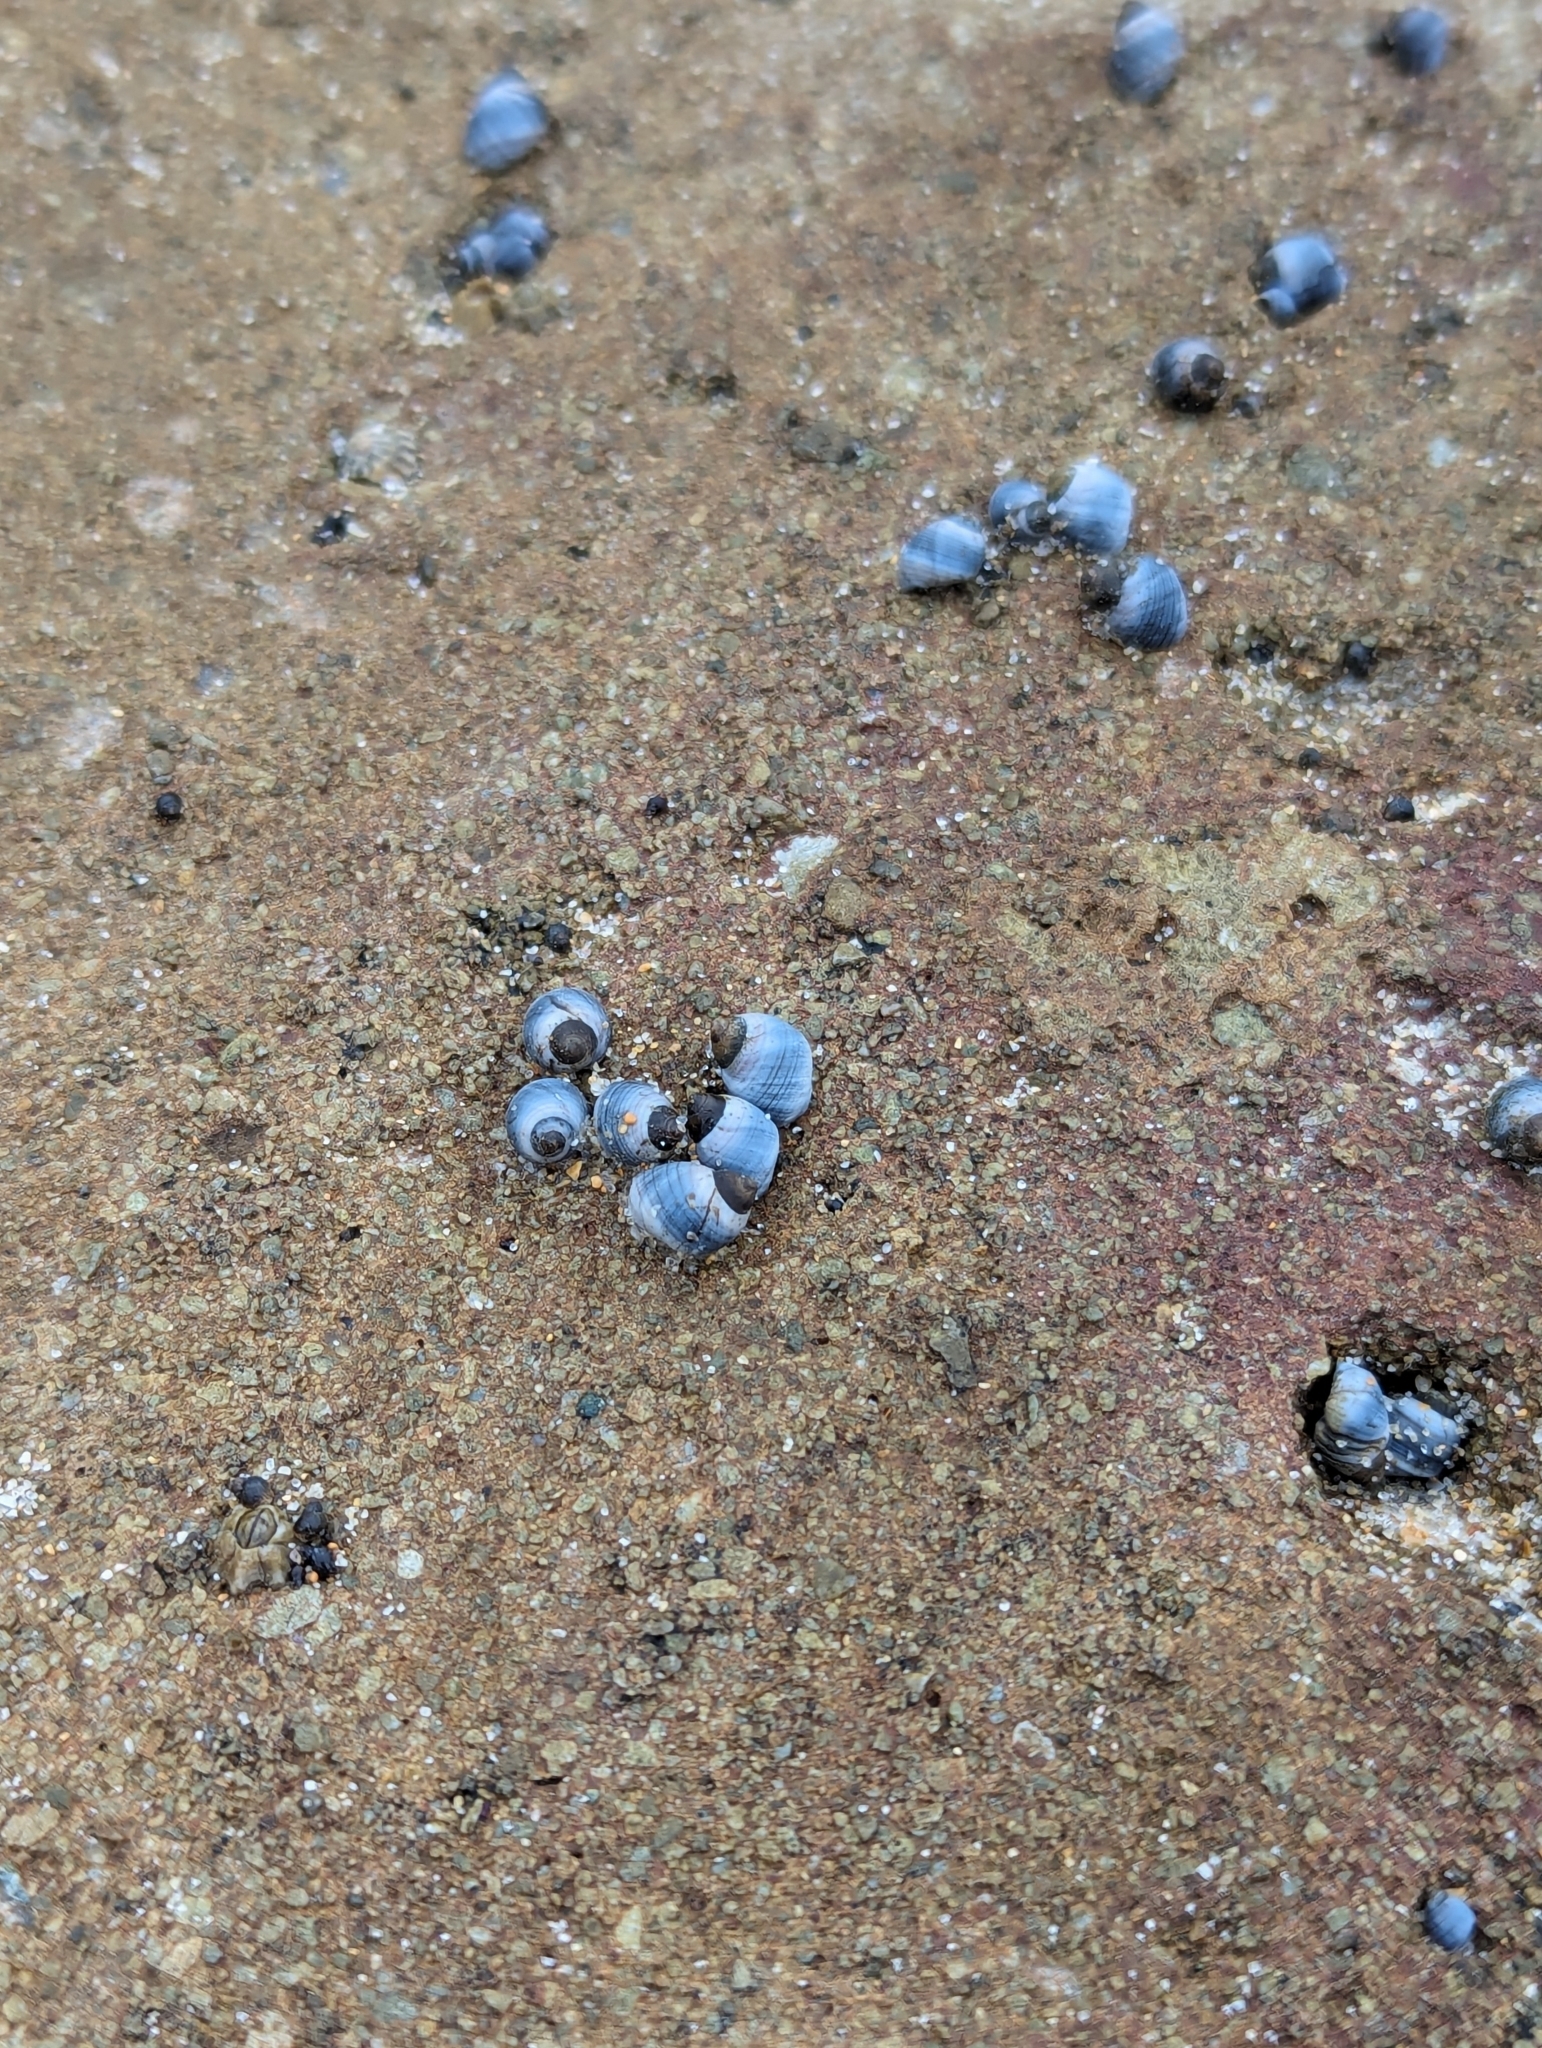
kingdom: Animalia
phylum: Mollusca
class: Gastropoda
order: Littorinimorpha
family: Littorinidae
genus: Austrolittorina
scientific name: Austrolittorina unifasciata
